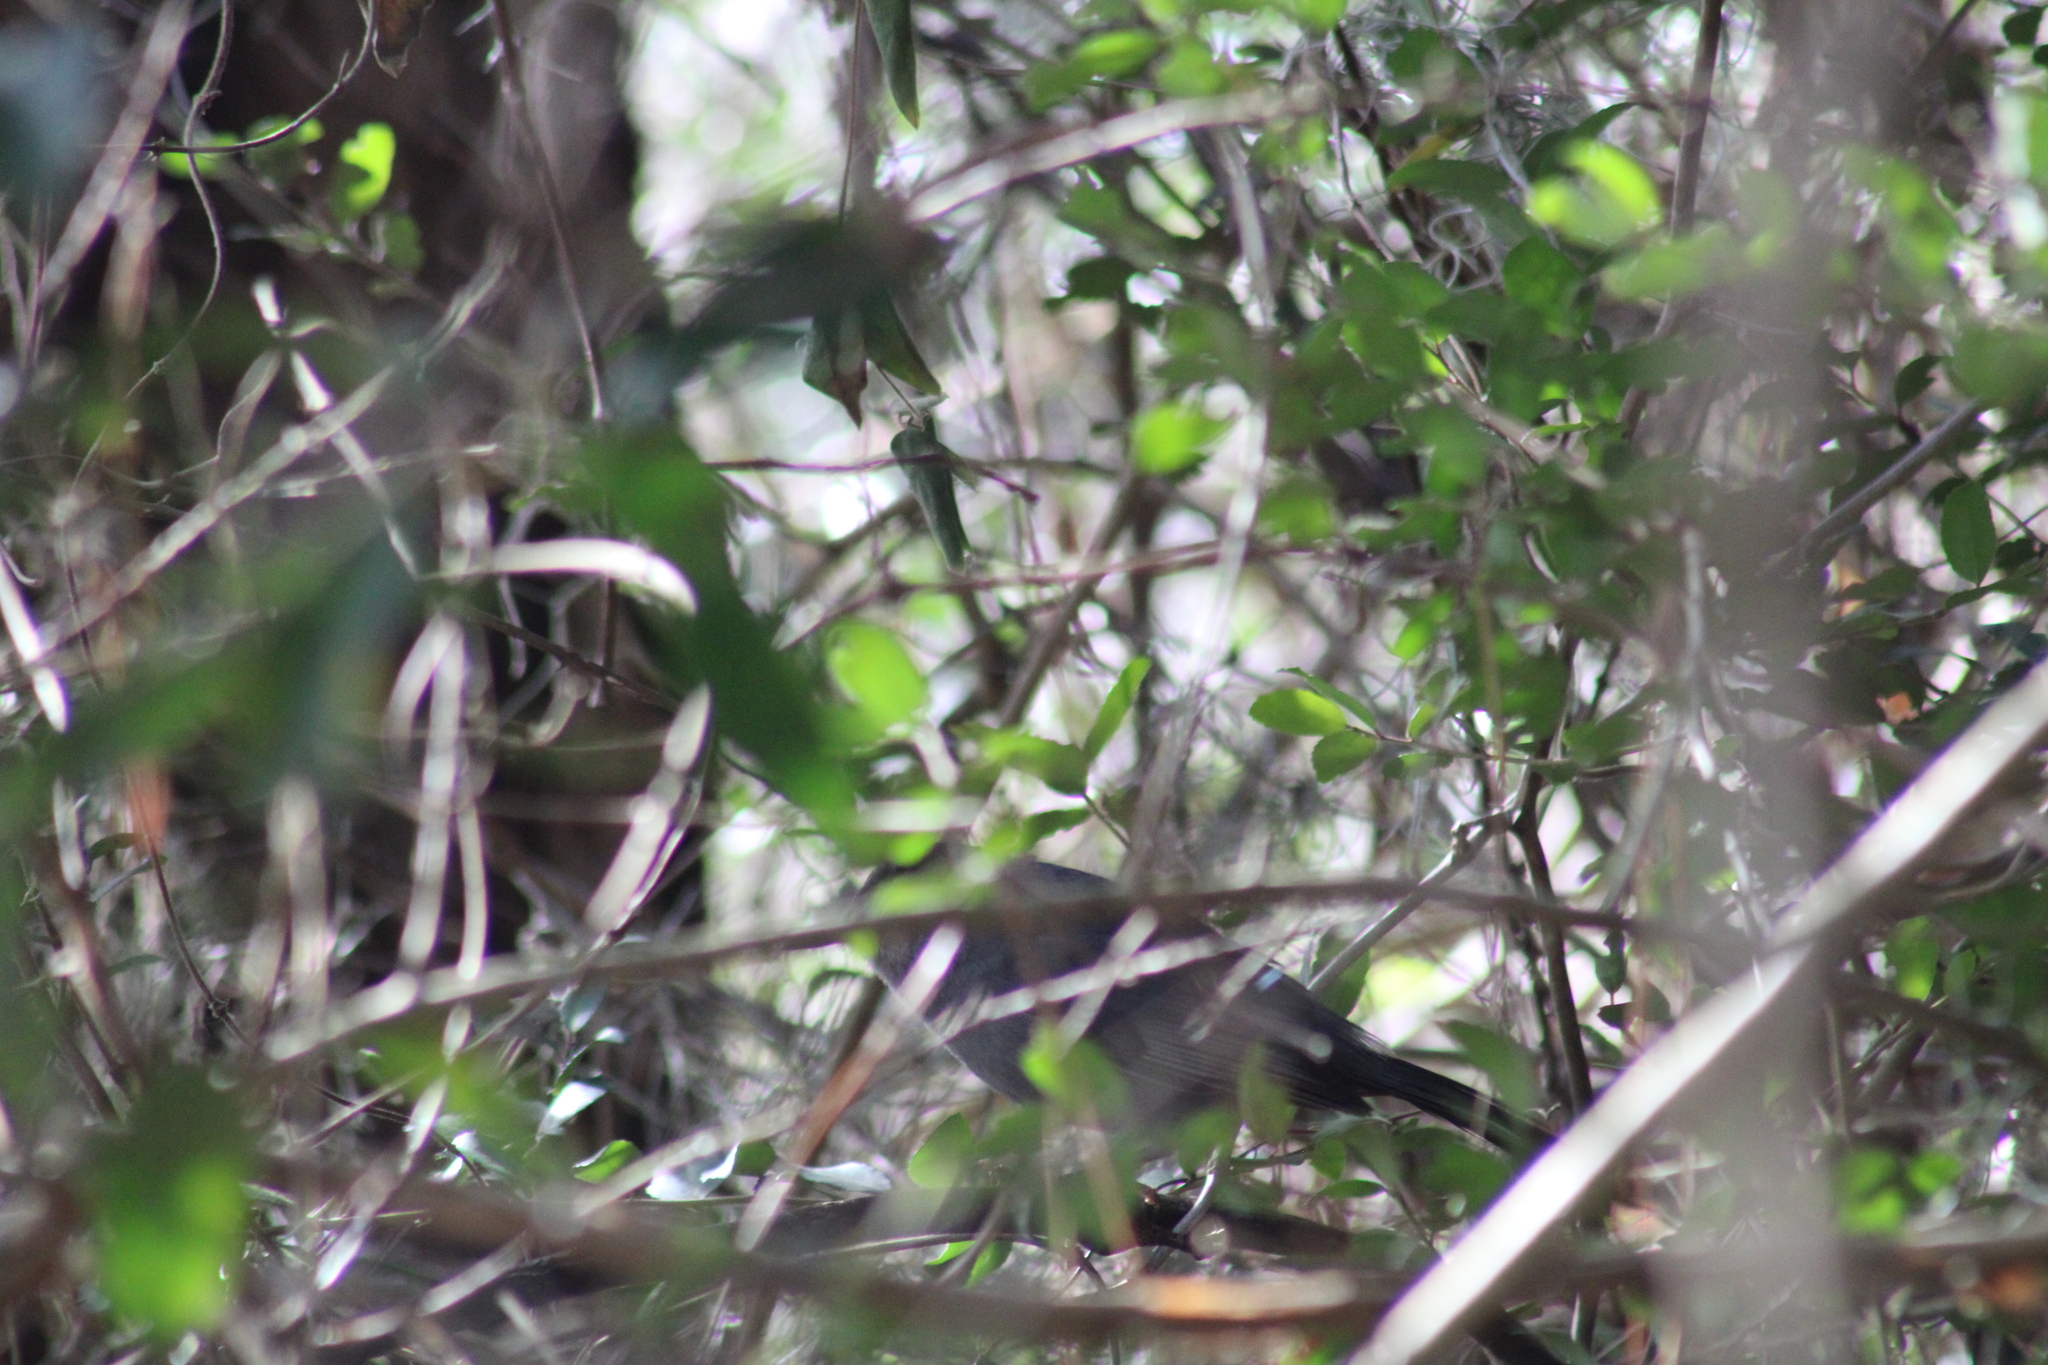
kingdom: Animalia
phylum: Chordata
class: Aves
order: Passeriformes
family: Mimidae
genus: Dumetella
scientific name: Dumetella carolinensis
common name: Gray catbird
